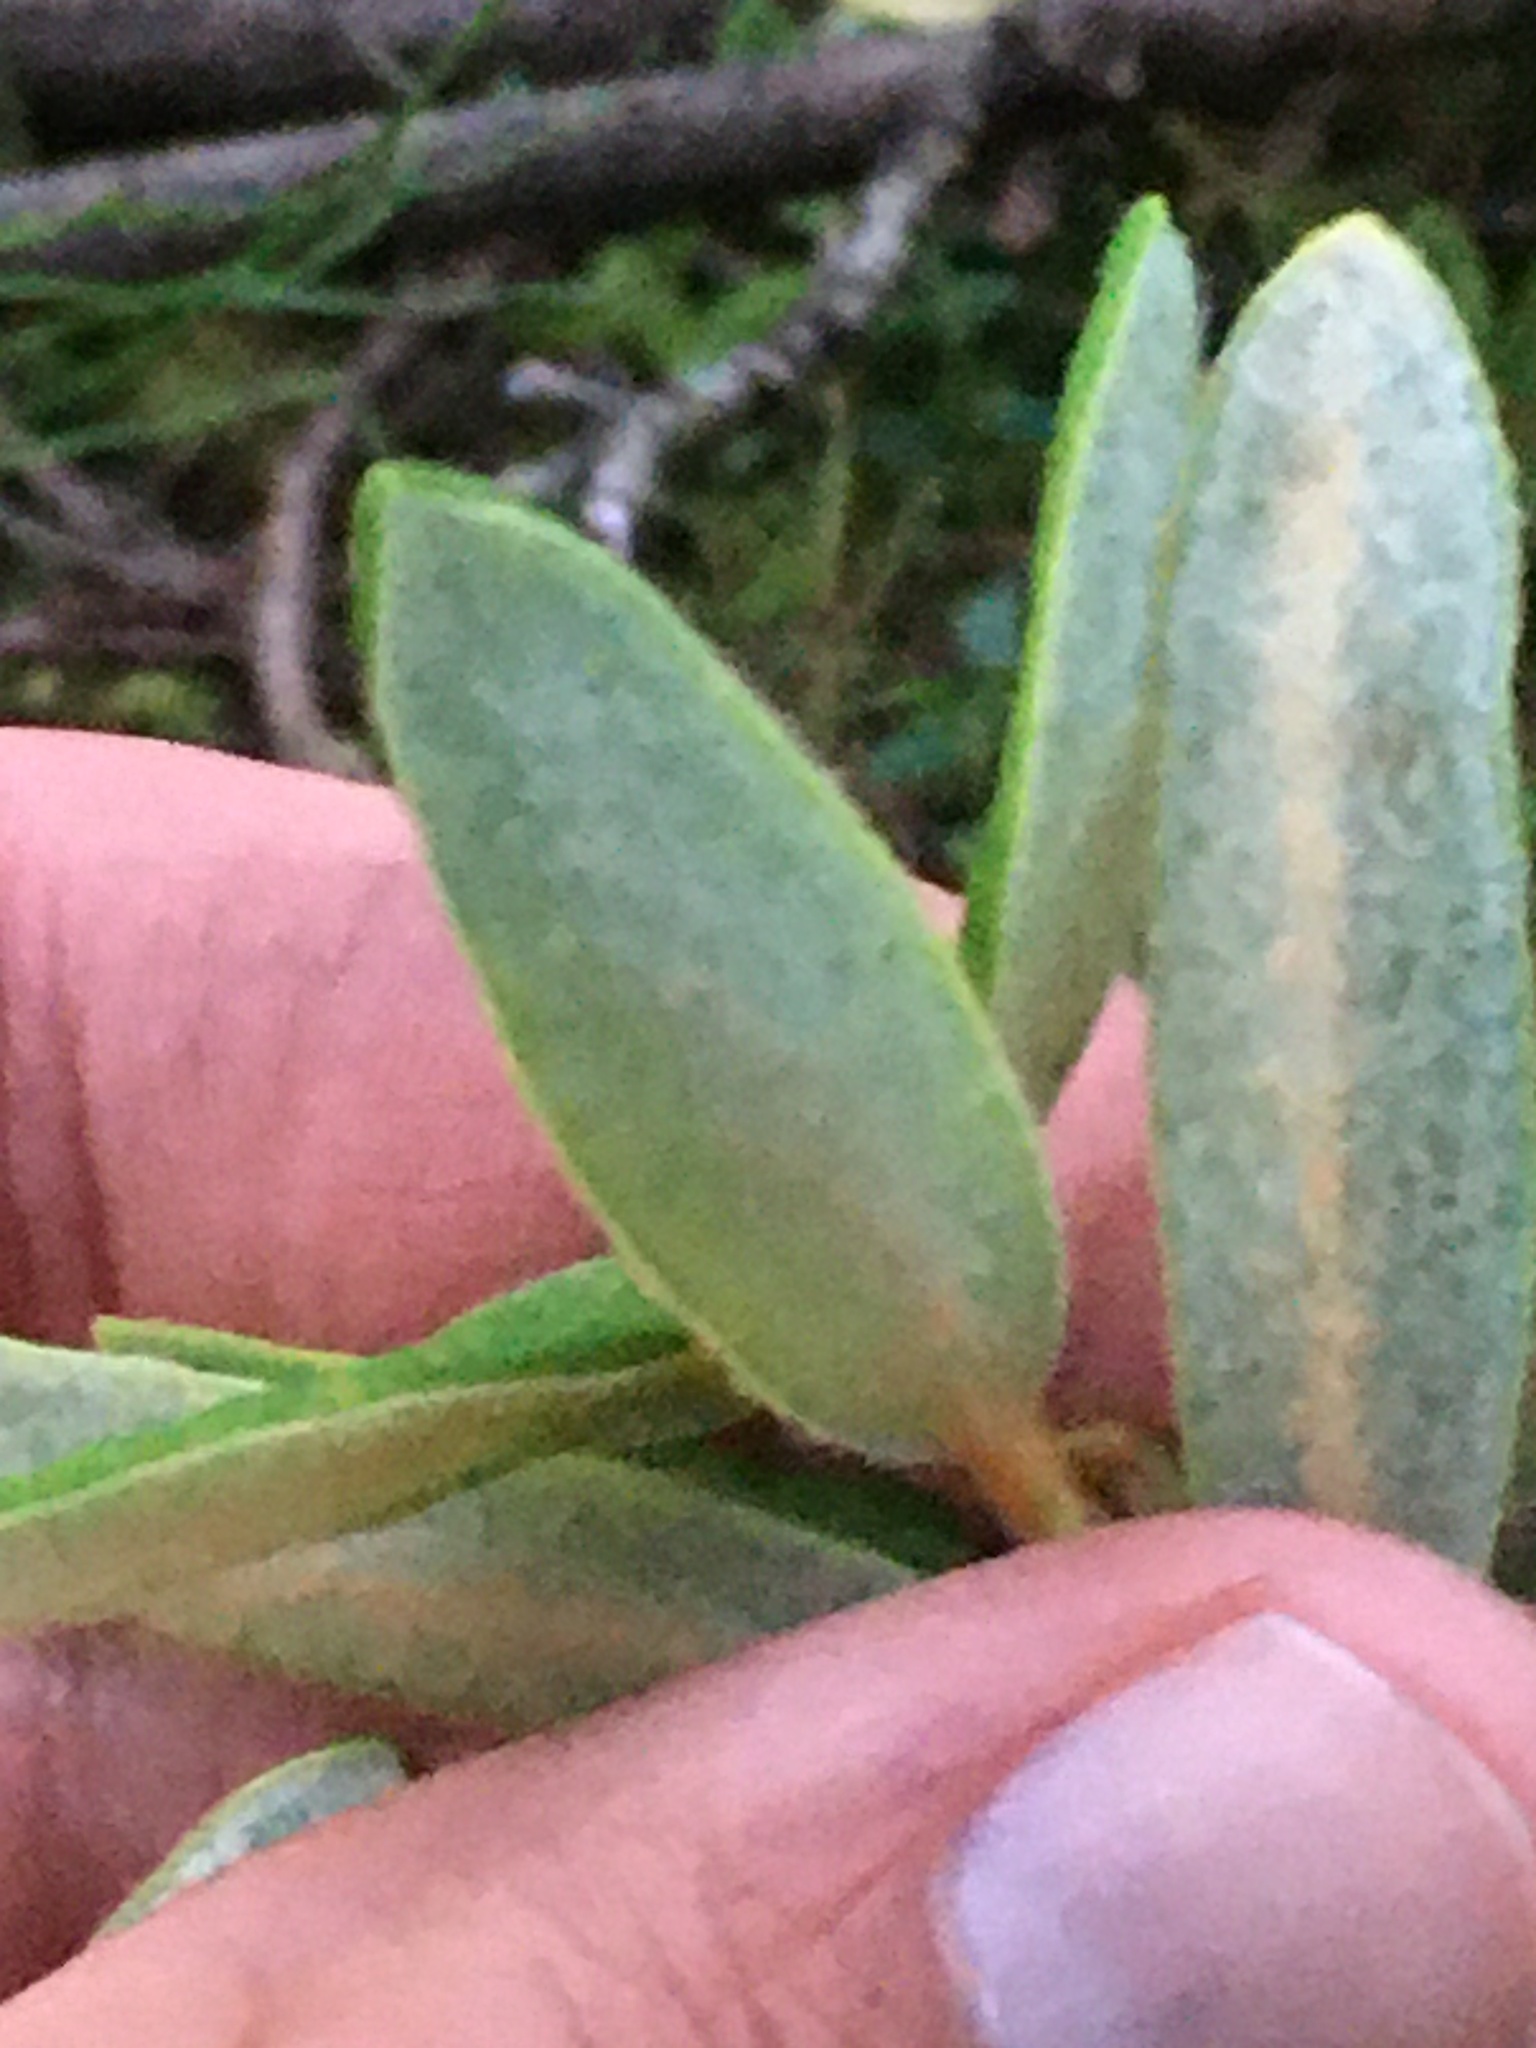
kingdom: Plantae
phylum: Tracheophyta
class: Magnoliopsida
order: Ericales
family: Ericaceae
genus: Rhododendron
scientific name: Rhododendron groenlandicum
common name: Bog labrador tea
